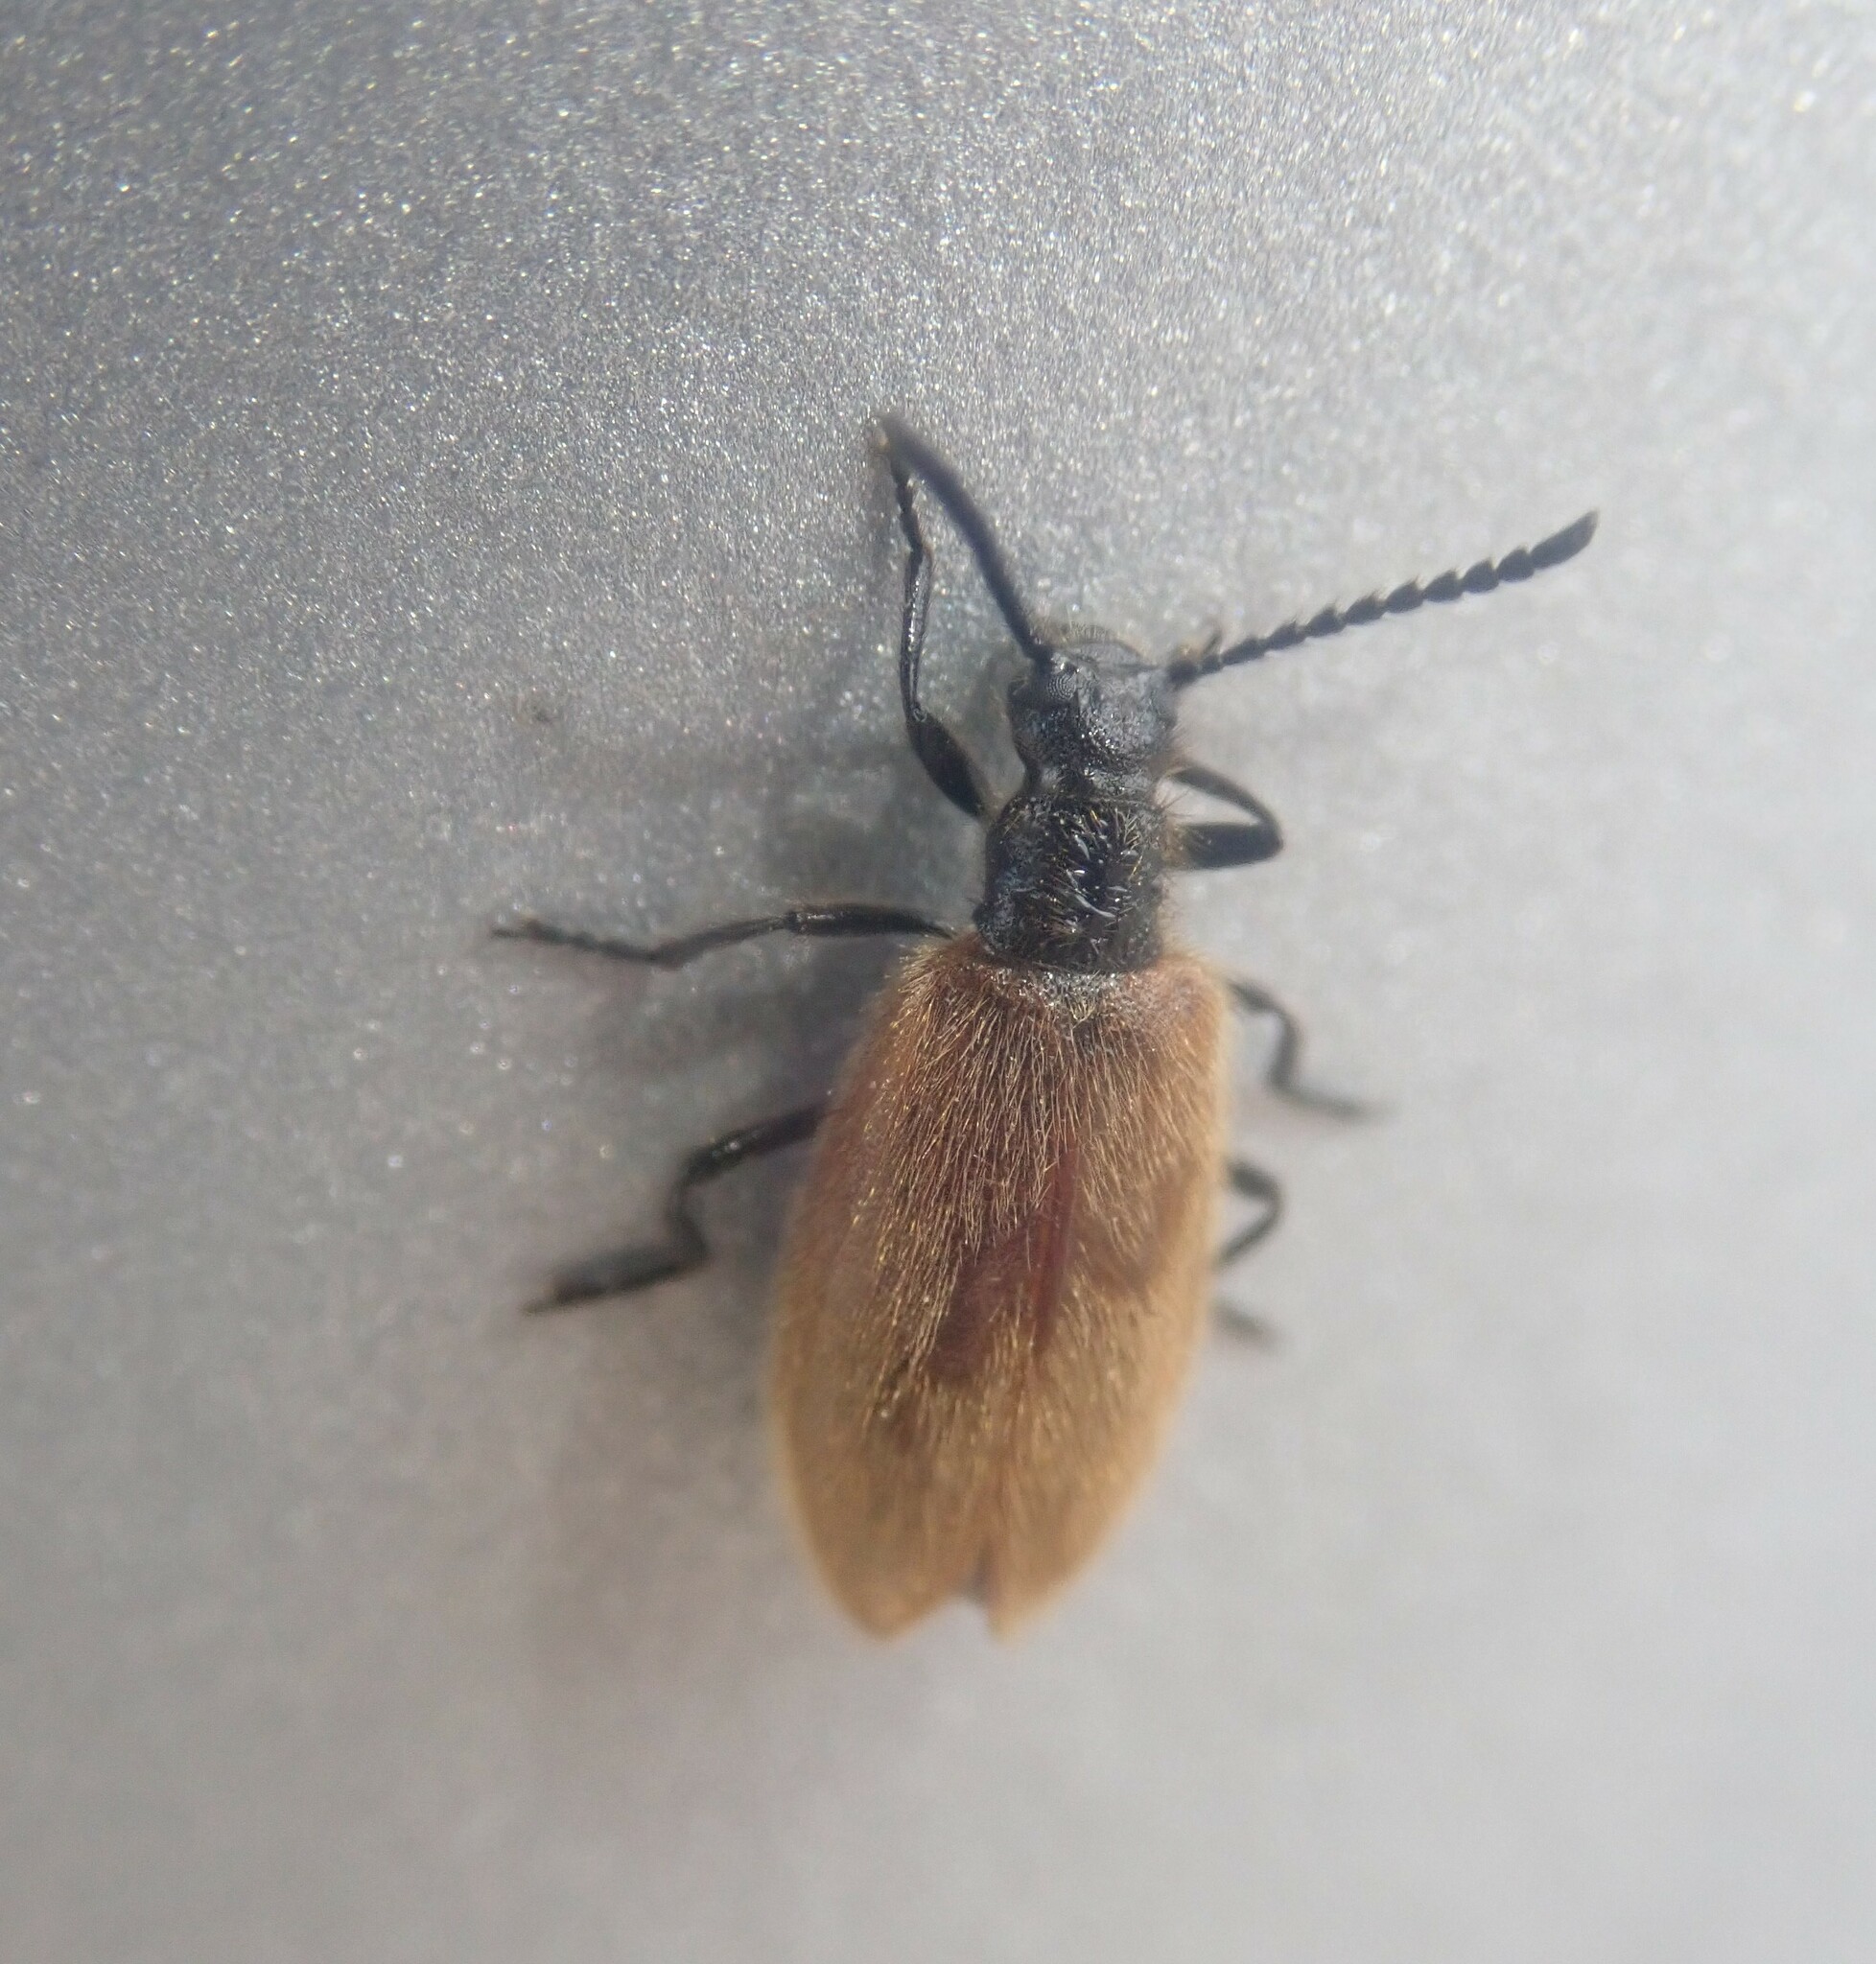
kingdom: Animalia
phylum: Arthropoda
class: Insecta
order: Coleoptera
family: Tenebrionidae
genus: Lagria
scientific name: Lagria hirta
